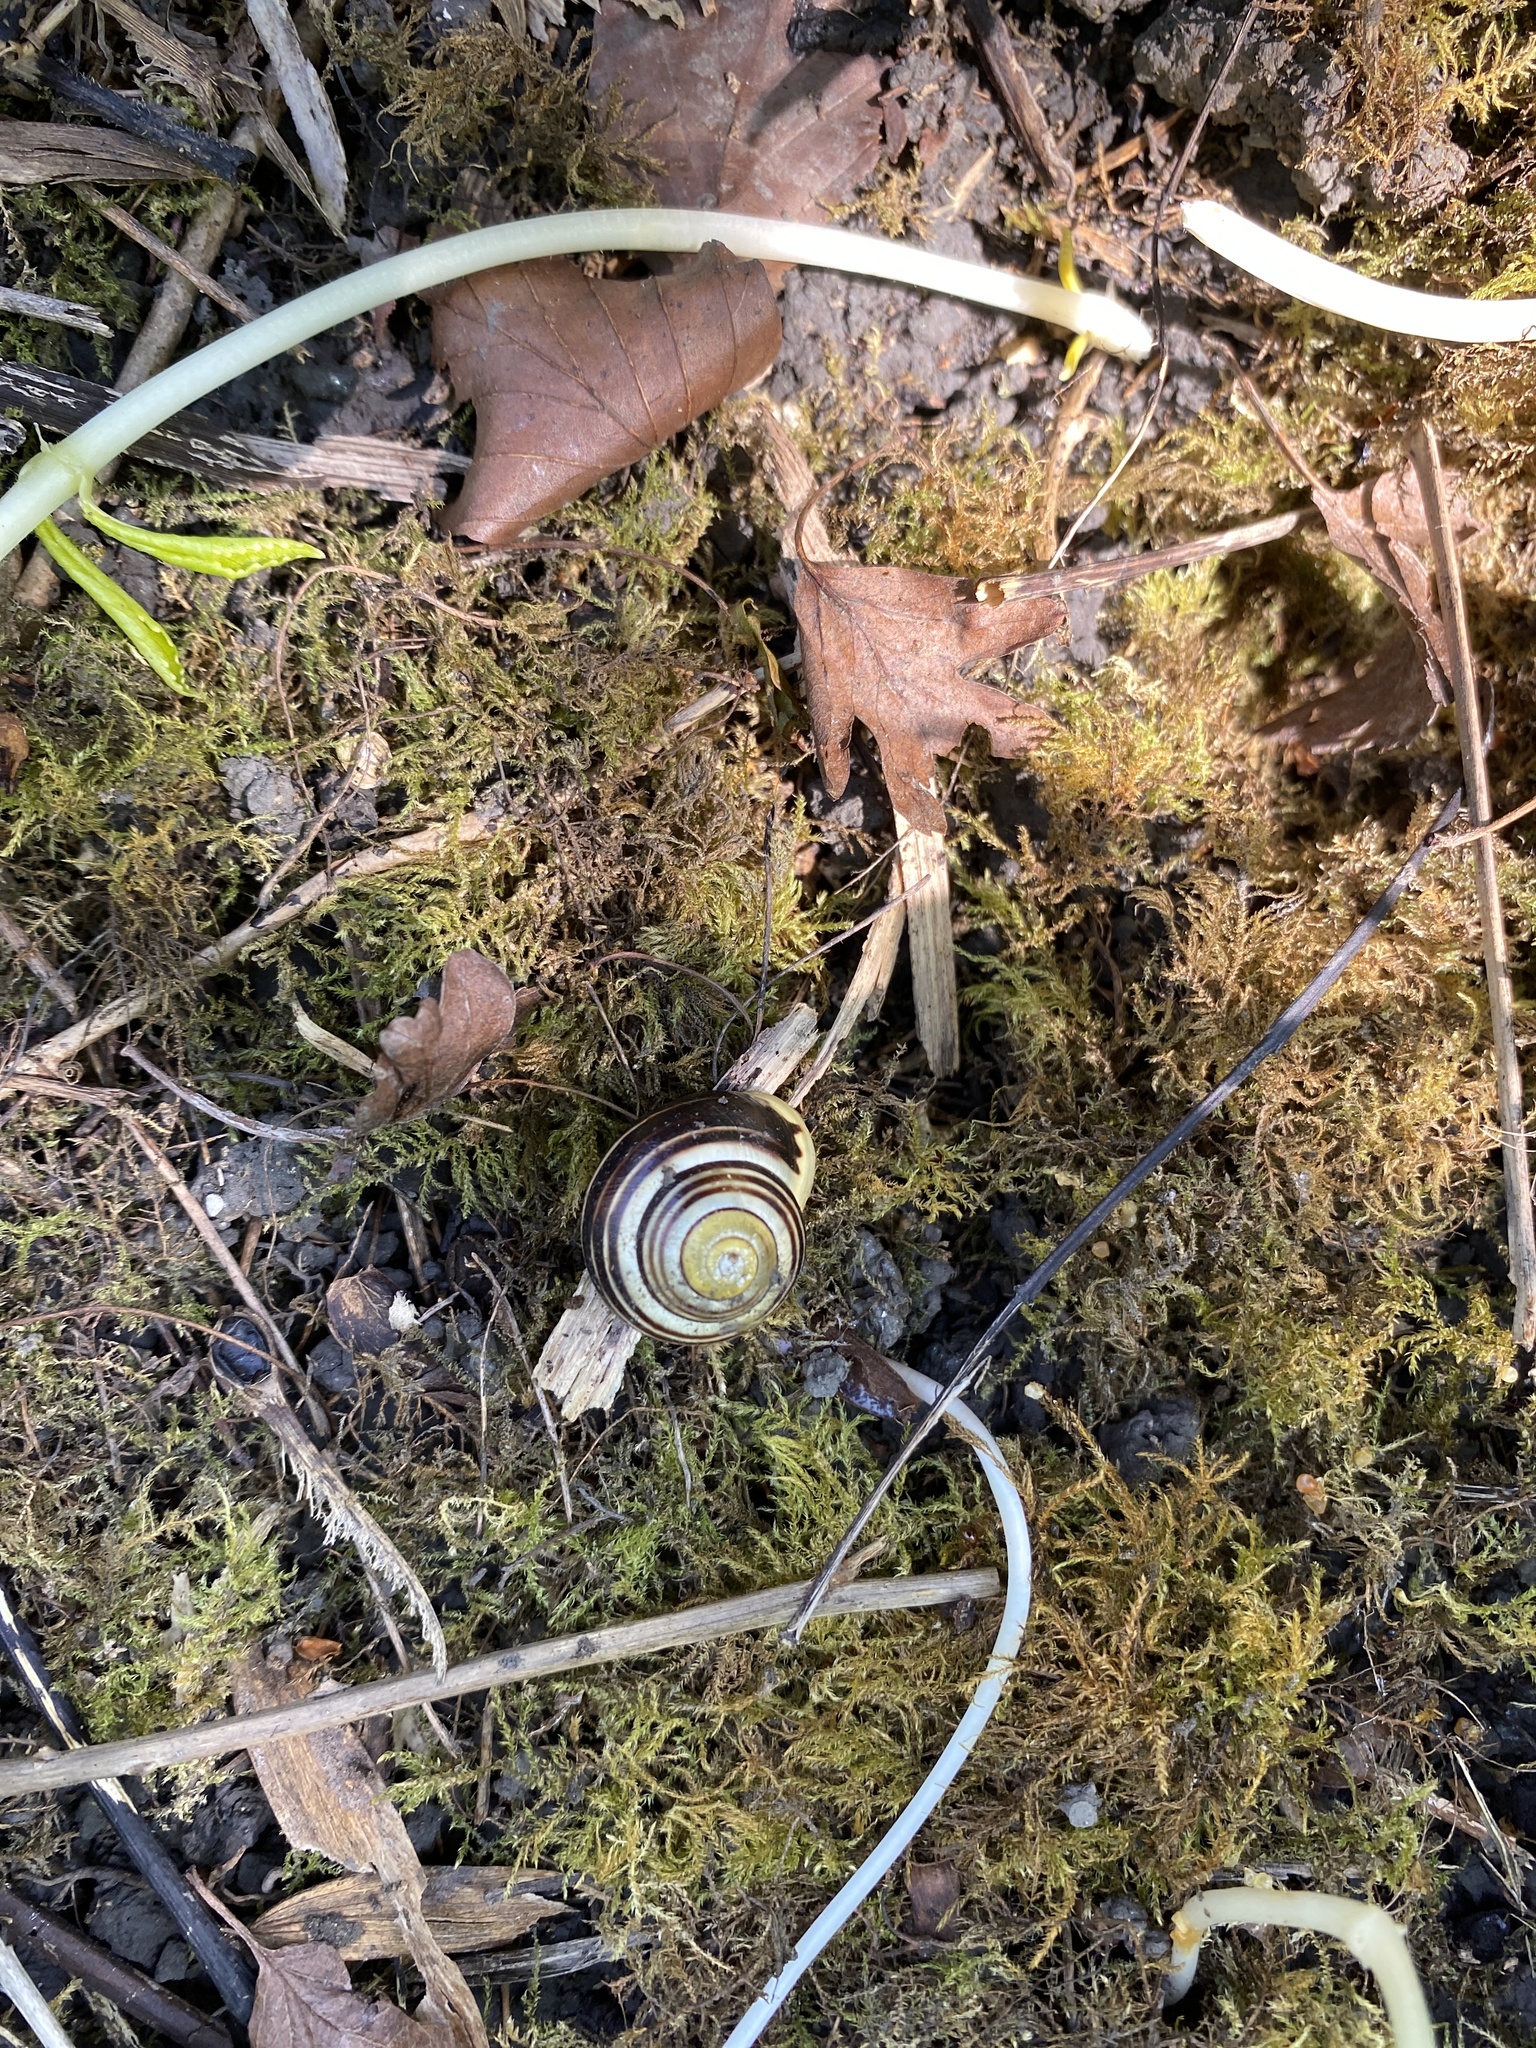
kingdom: Animalia
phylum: Mollusca
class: Gastropoda
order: Stylommatophora
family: Helicidae
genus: Cepaea
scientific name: Cepaea hortensis
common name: White-lip gardensnail
